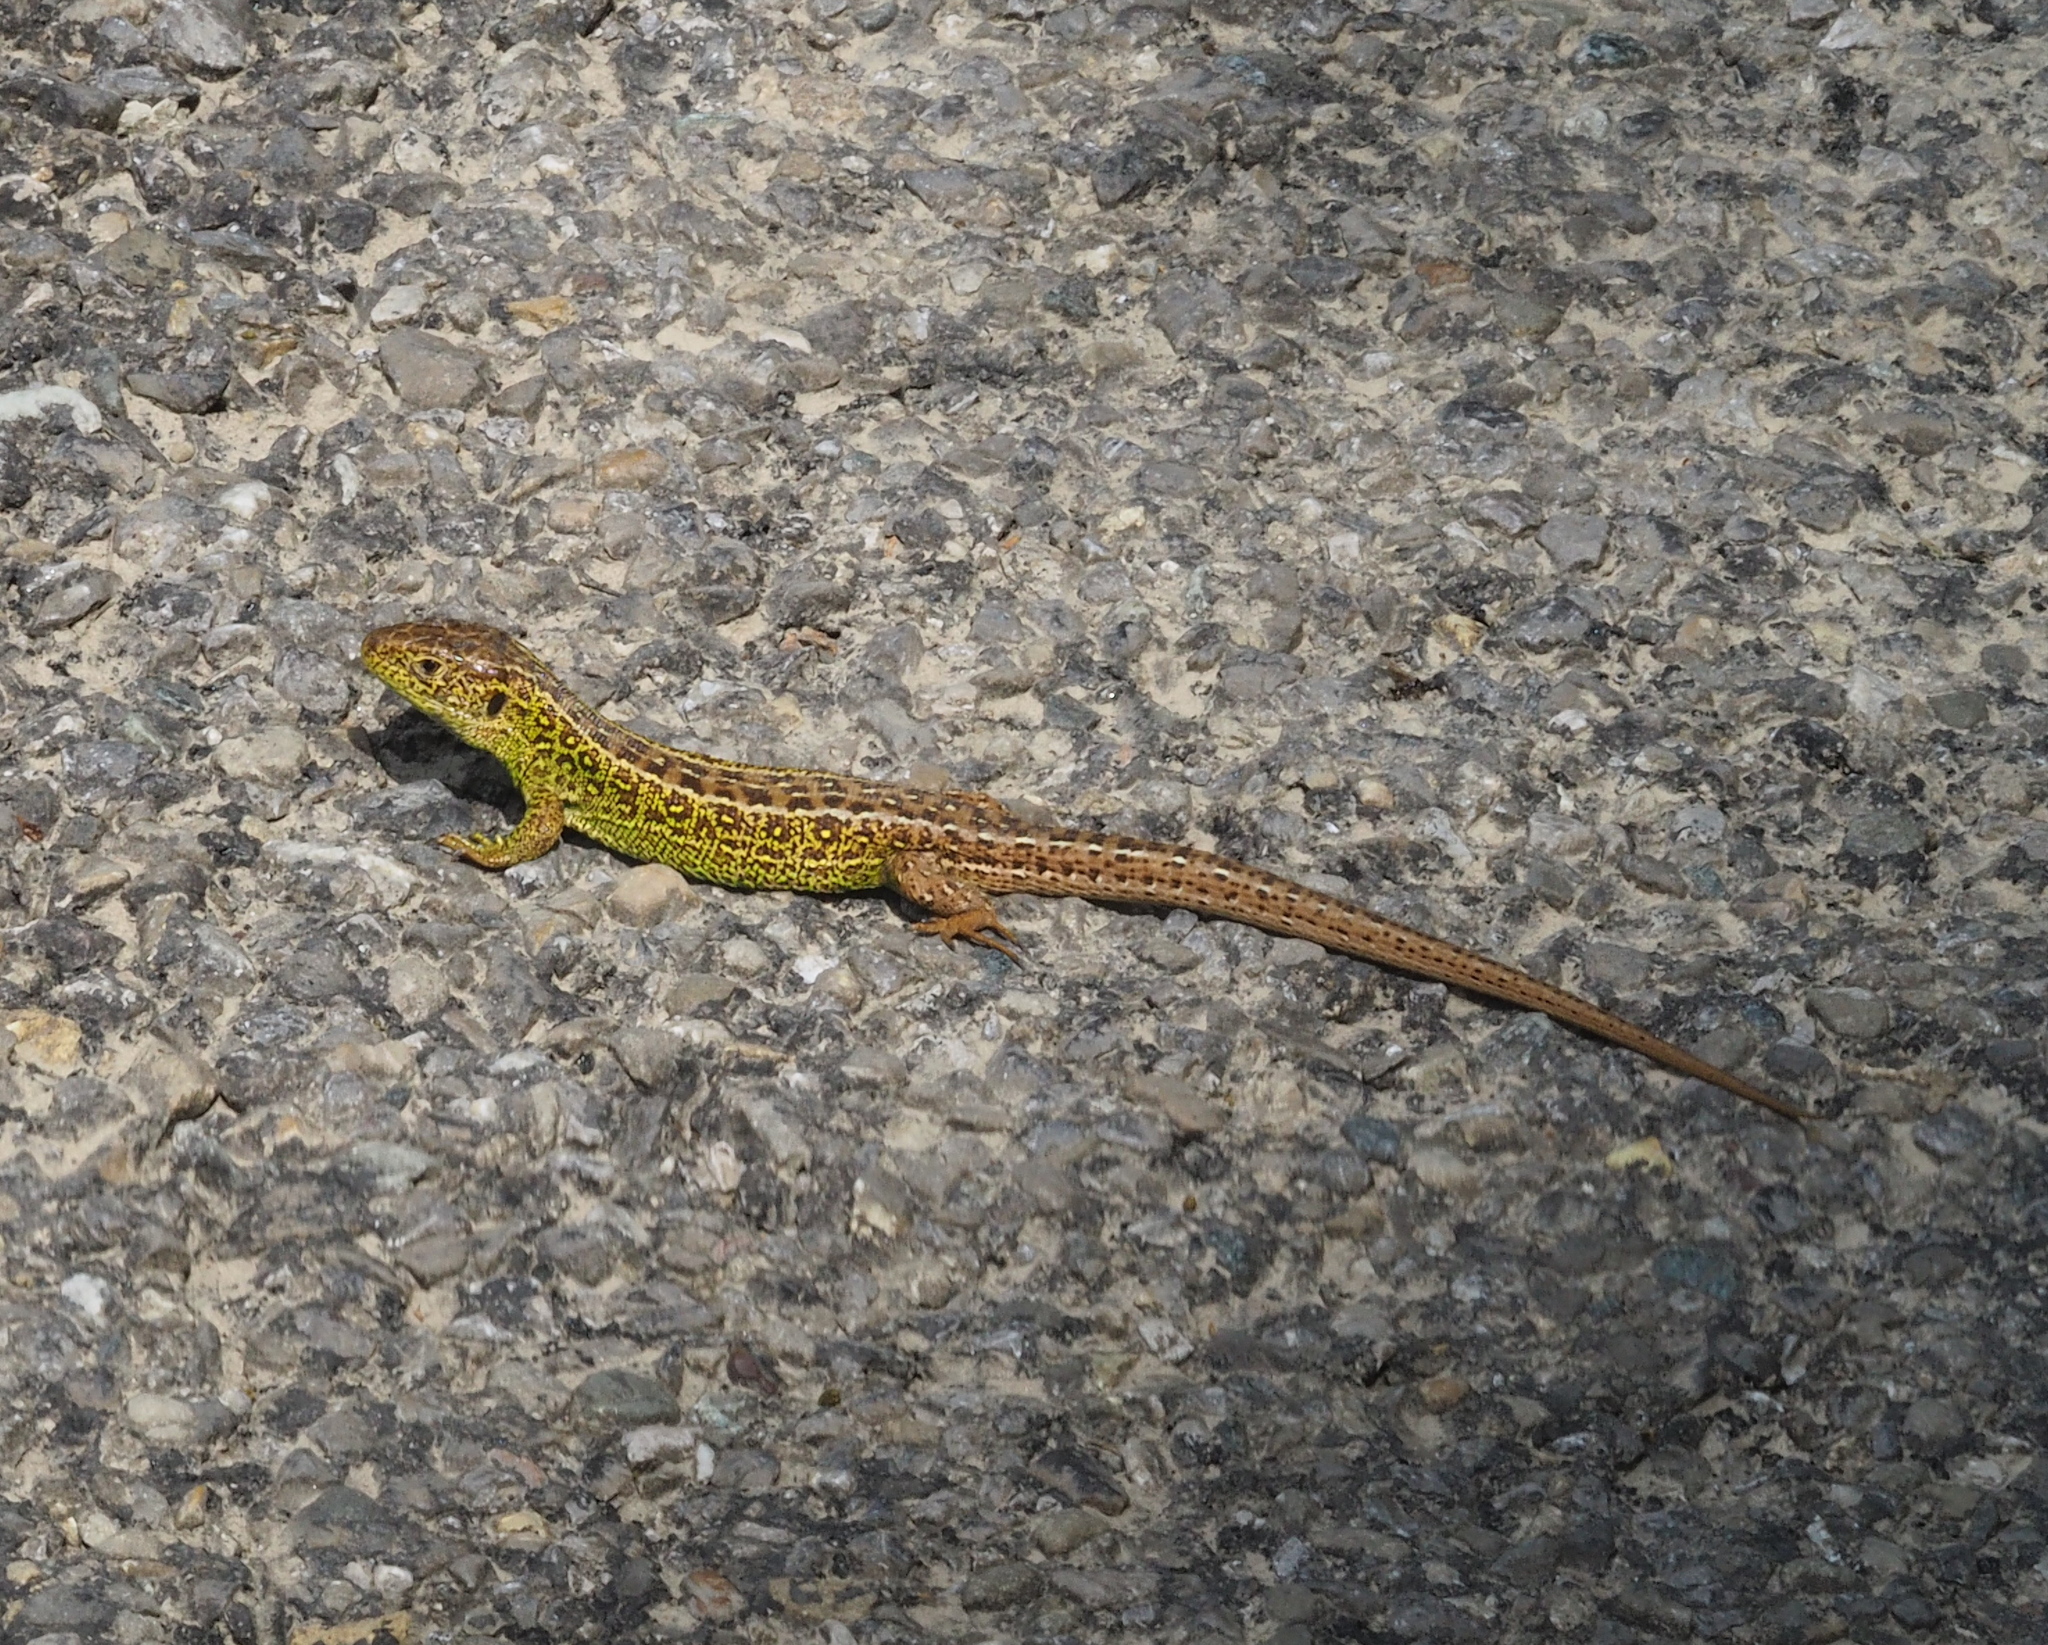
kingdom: Animalia
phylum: Chordata
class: Squamata
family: Lacertidae
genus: Lacerta
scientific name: Lacerta agilis
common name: Sand lizard
